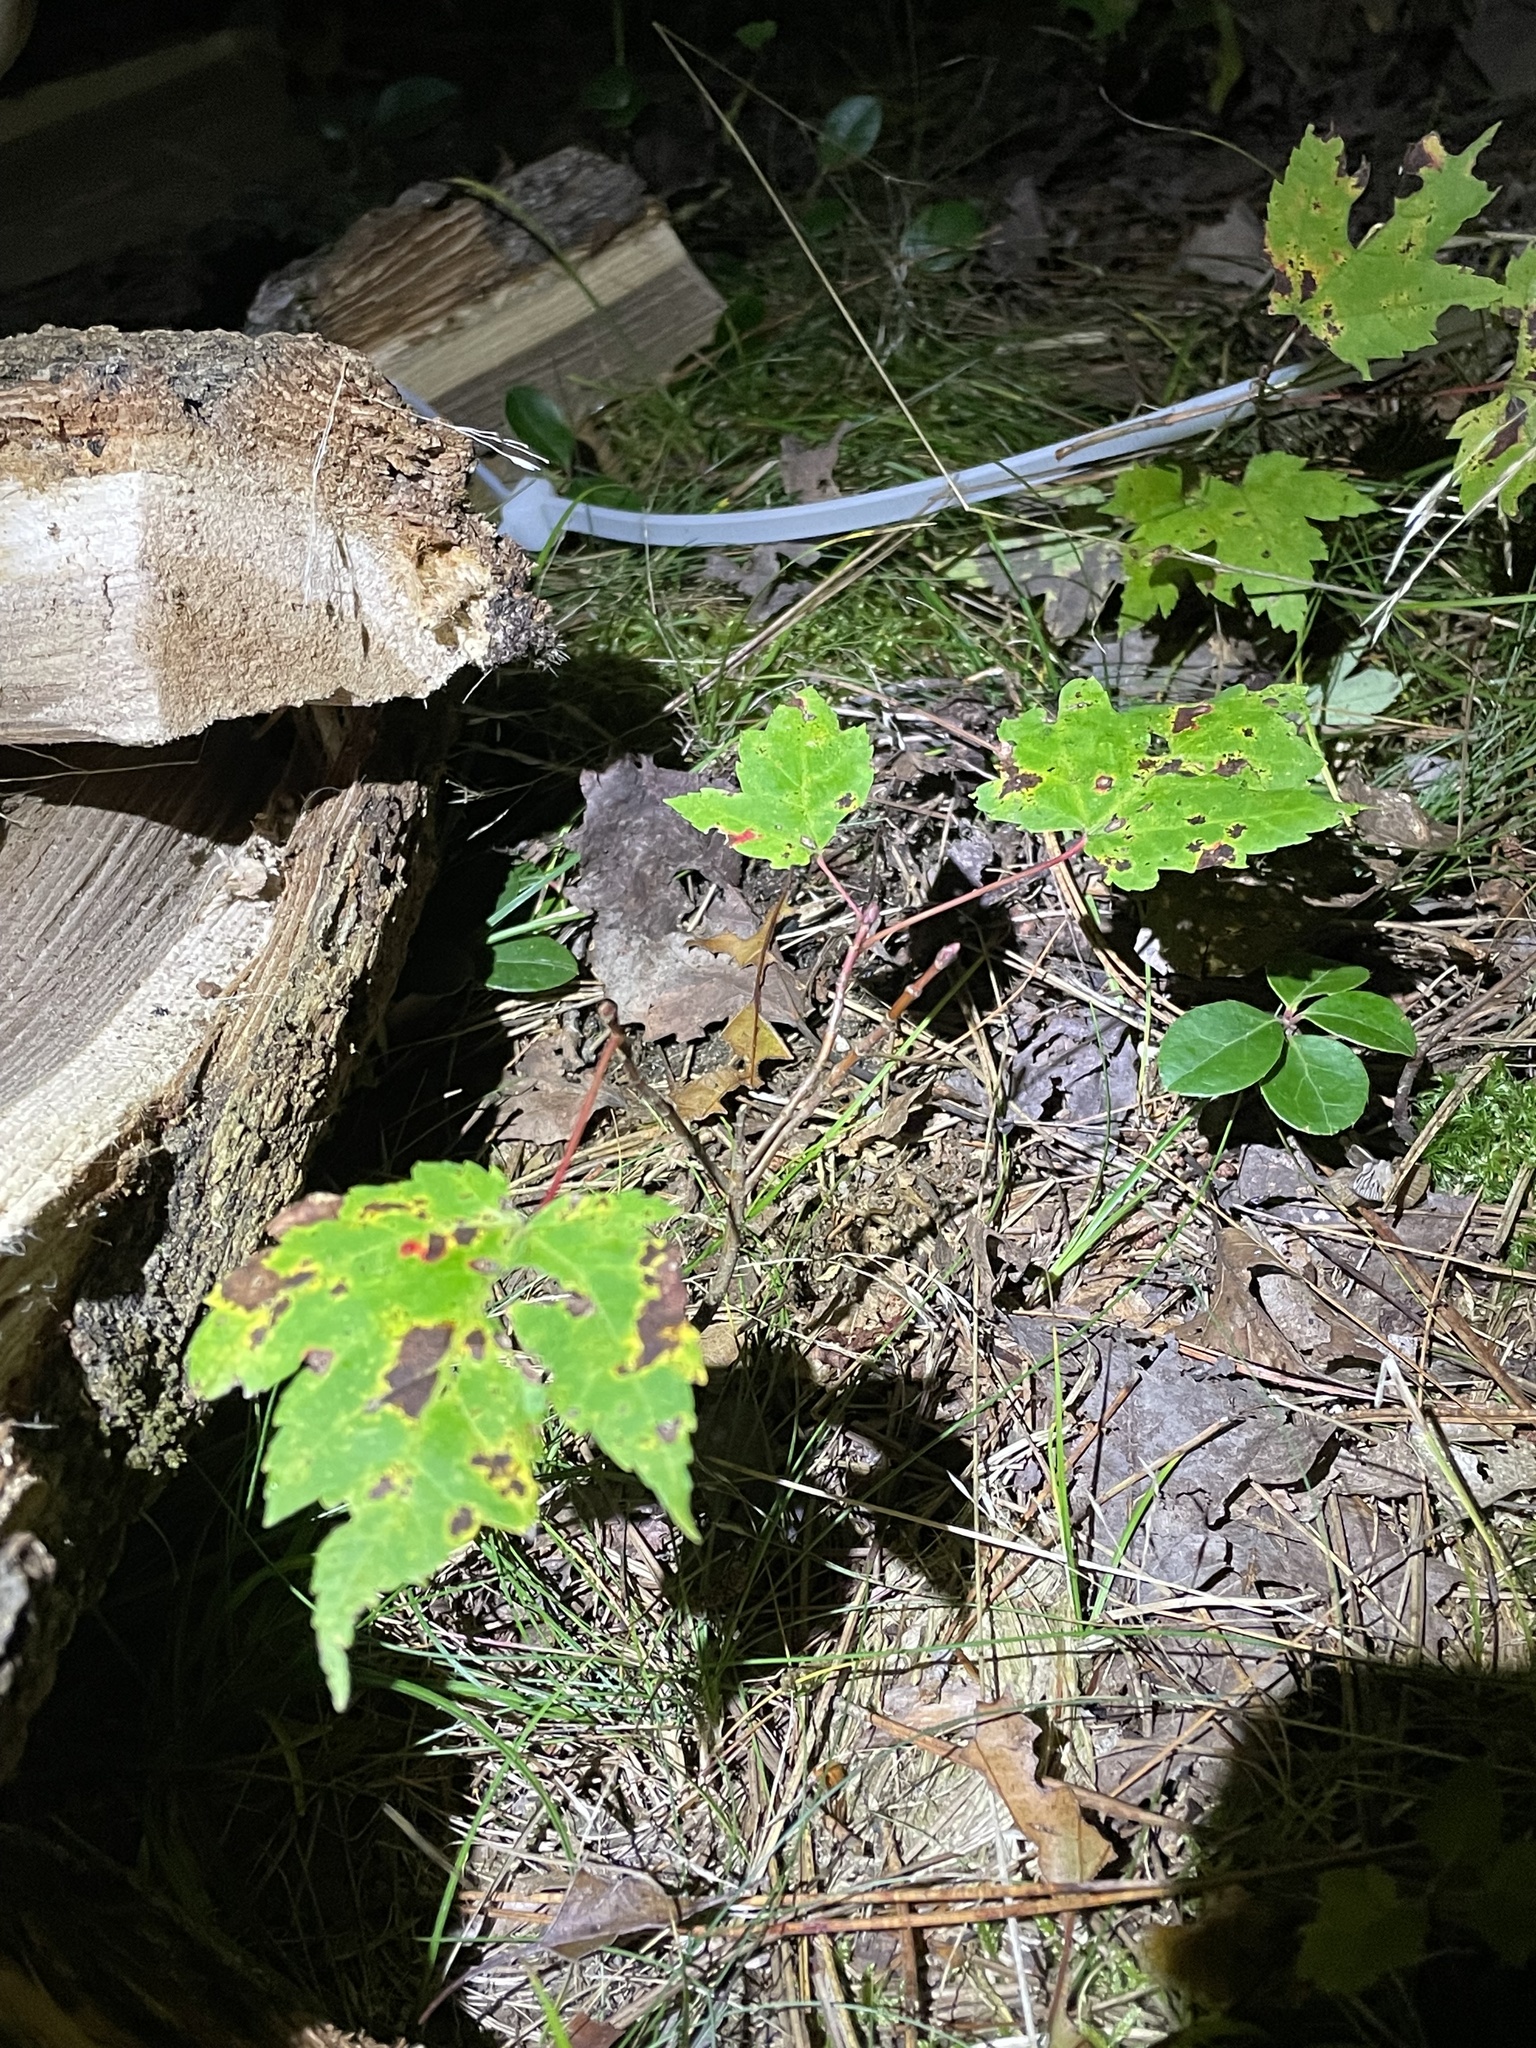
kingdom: Plantae
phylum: Tracheophyta
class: Magnoliopsida
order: Sapindales
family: Sapindaceae
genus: Acer
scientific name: Acer rubrum
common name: Red maple
